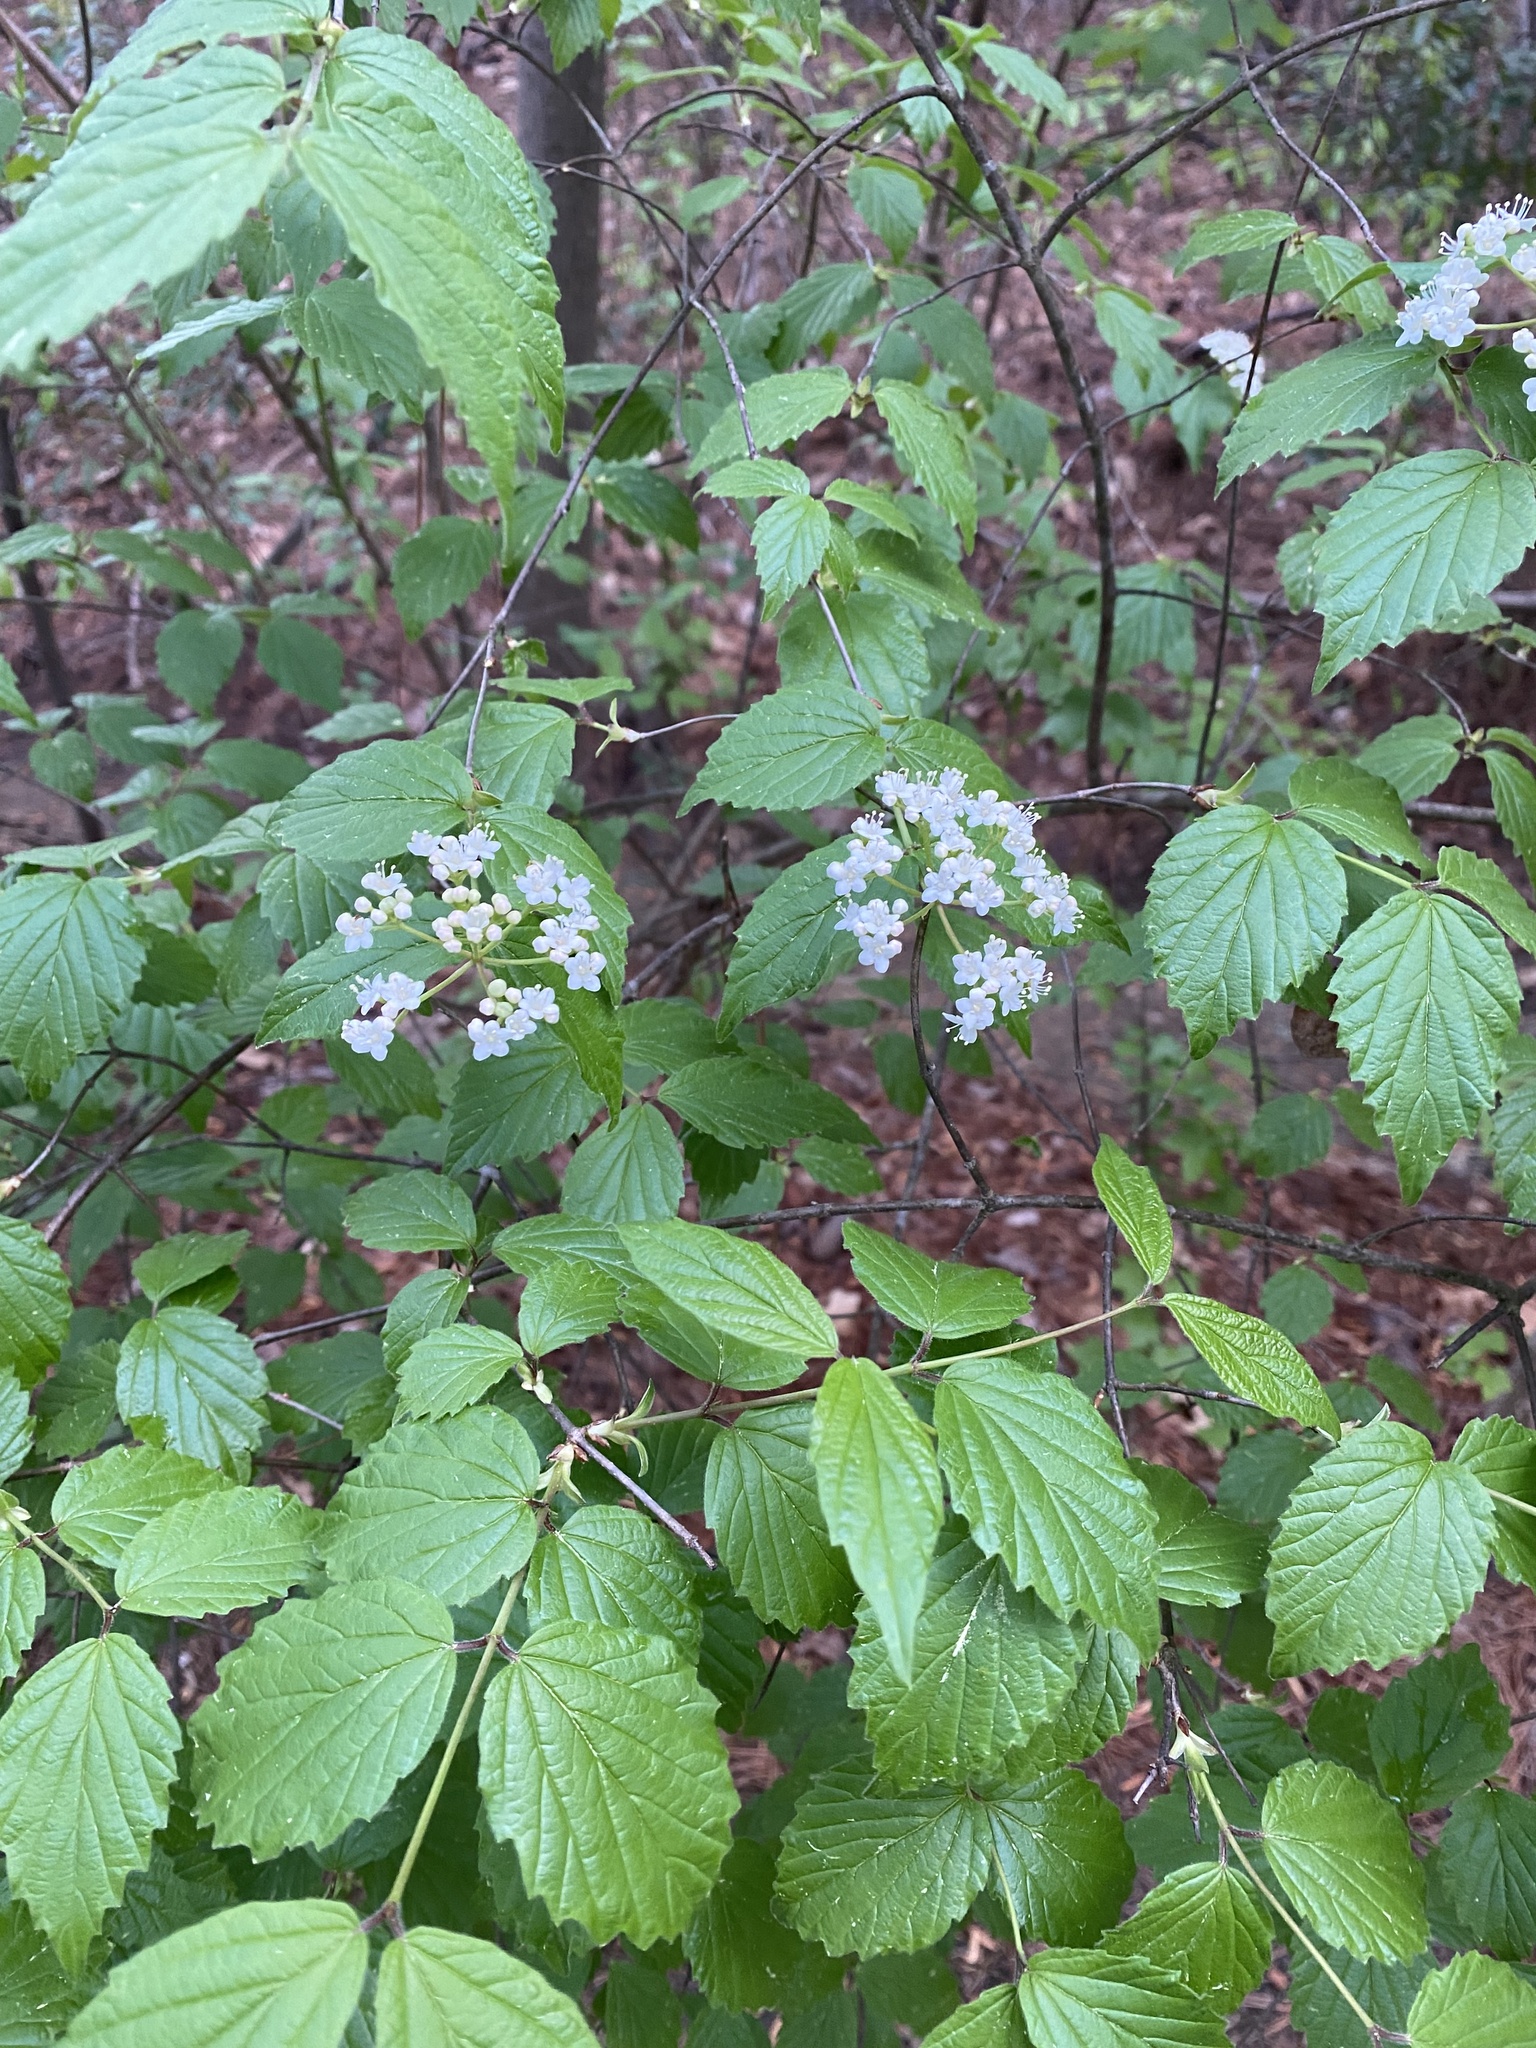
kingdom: Plantae
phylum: Tracheophyta
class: Magnoliopsida
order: Dipsacales
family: Viburnaceae
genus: Viburnum
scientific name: Viburnum rafinesqueanum
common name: Downy arrow-wood
